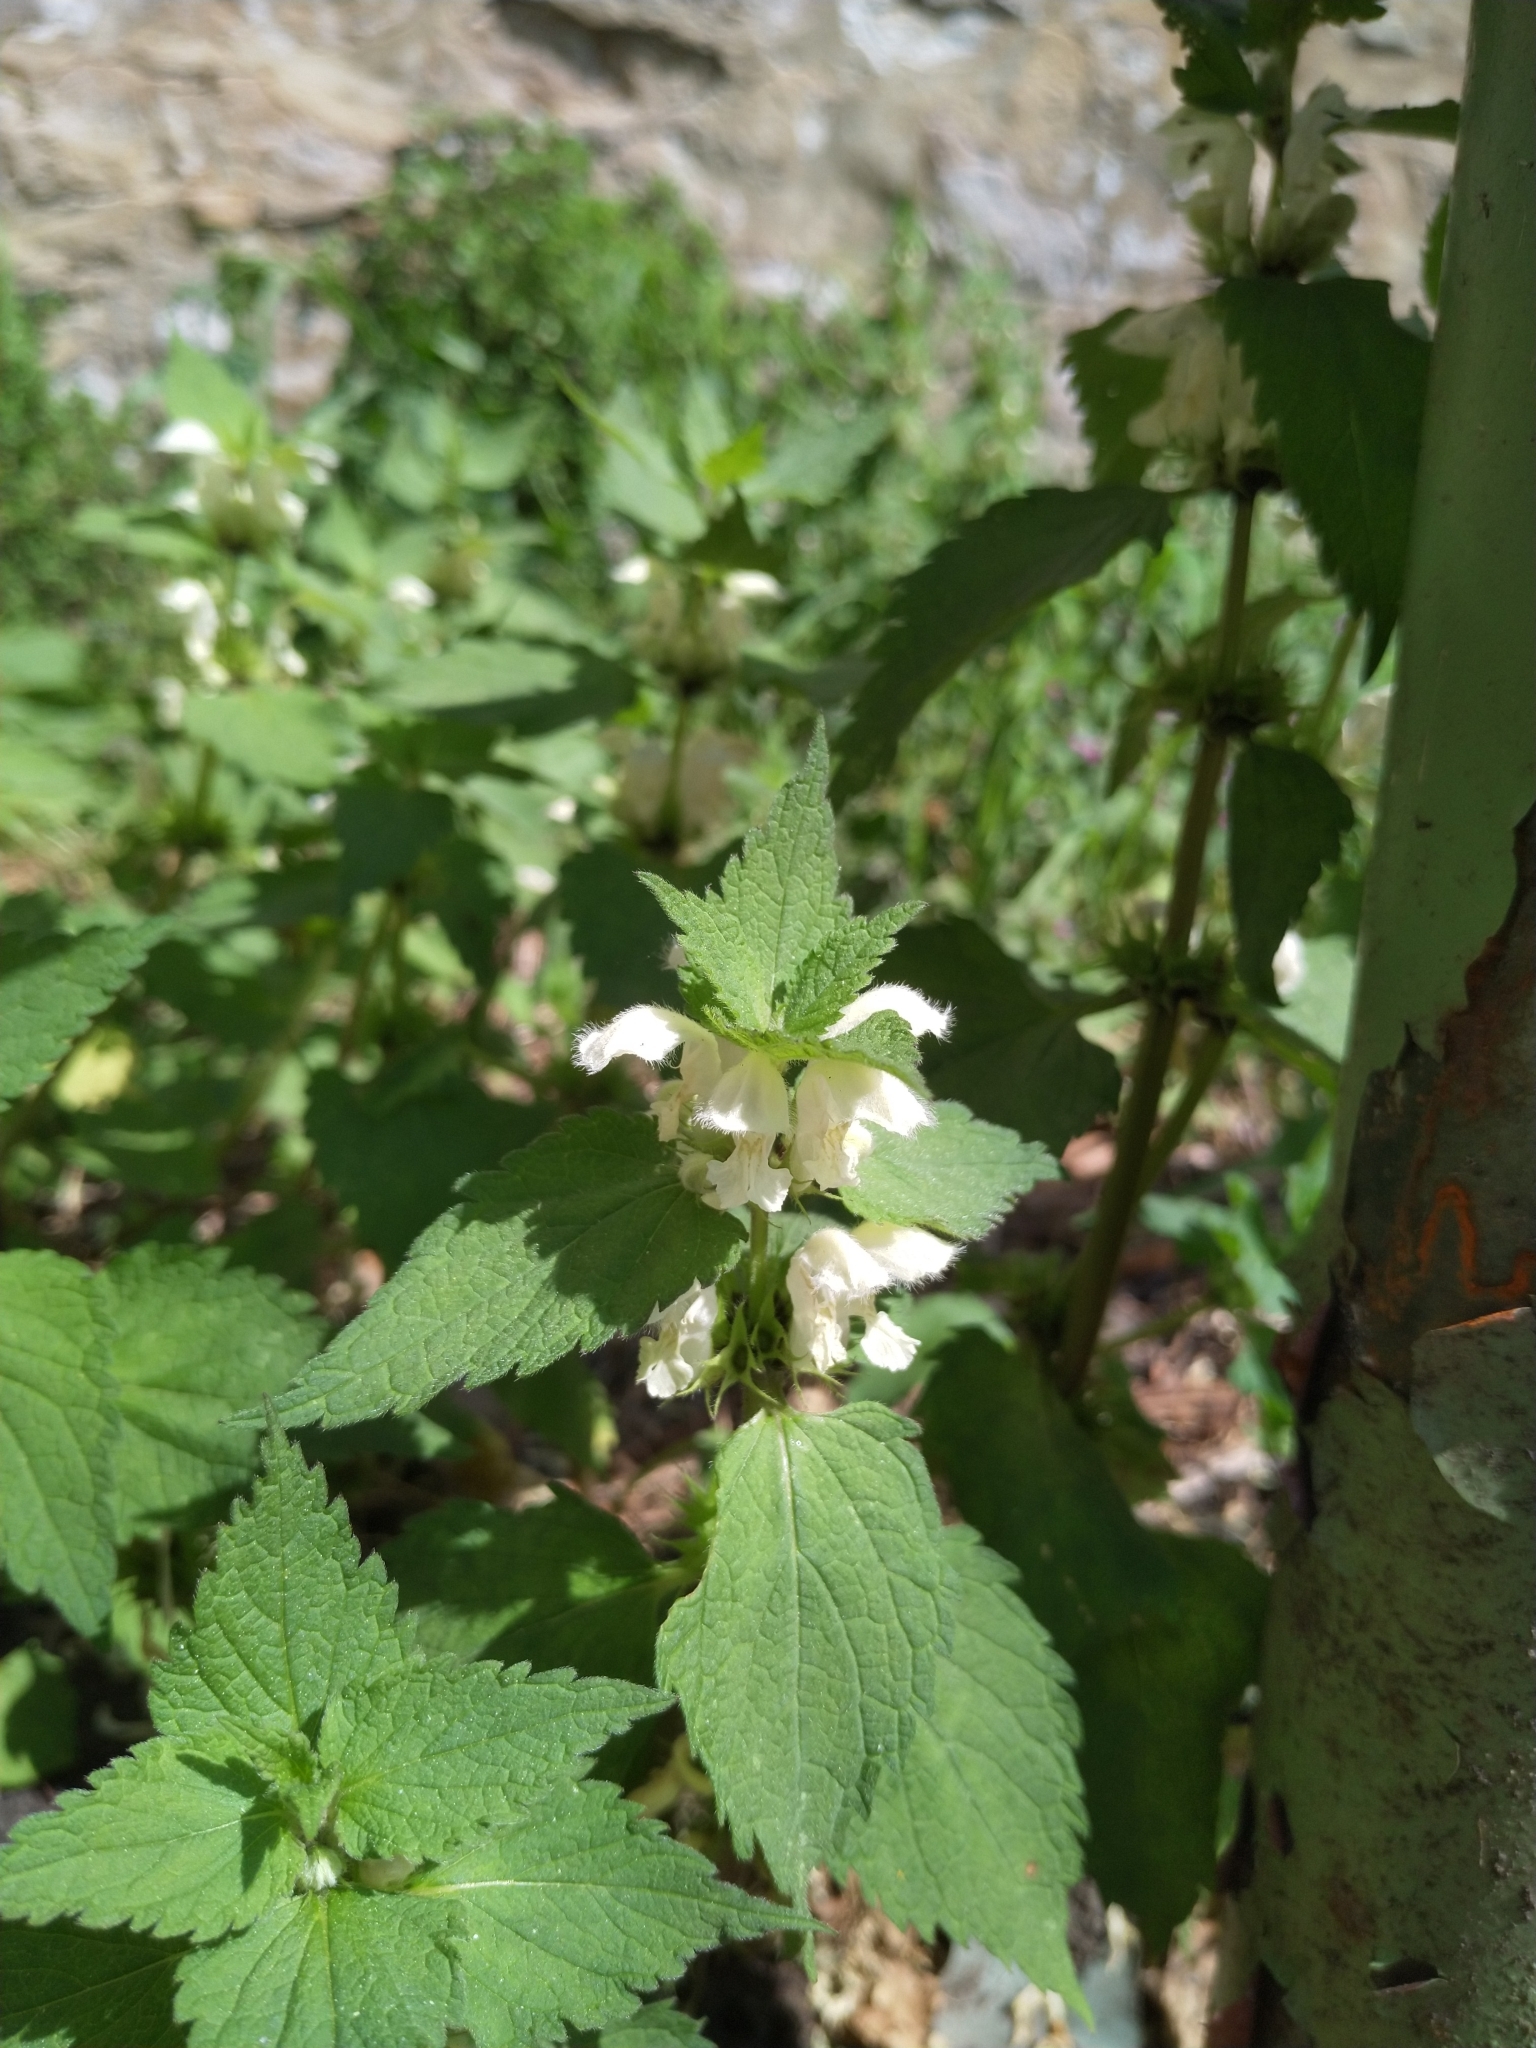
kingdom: Plantae
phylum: Tracheophyta
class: Magnoliopsida
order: Lamiales
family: Lamiaceae
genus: Lamium
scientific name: Lamium album
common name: White dead-nettle
